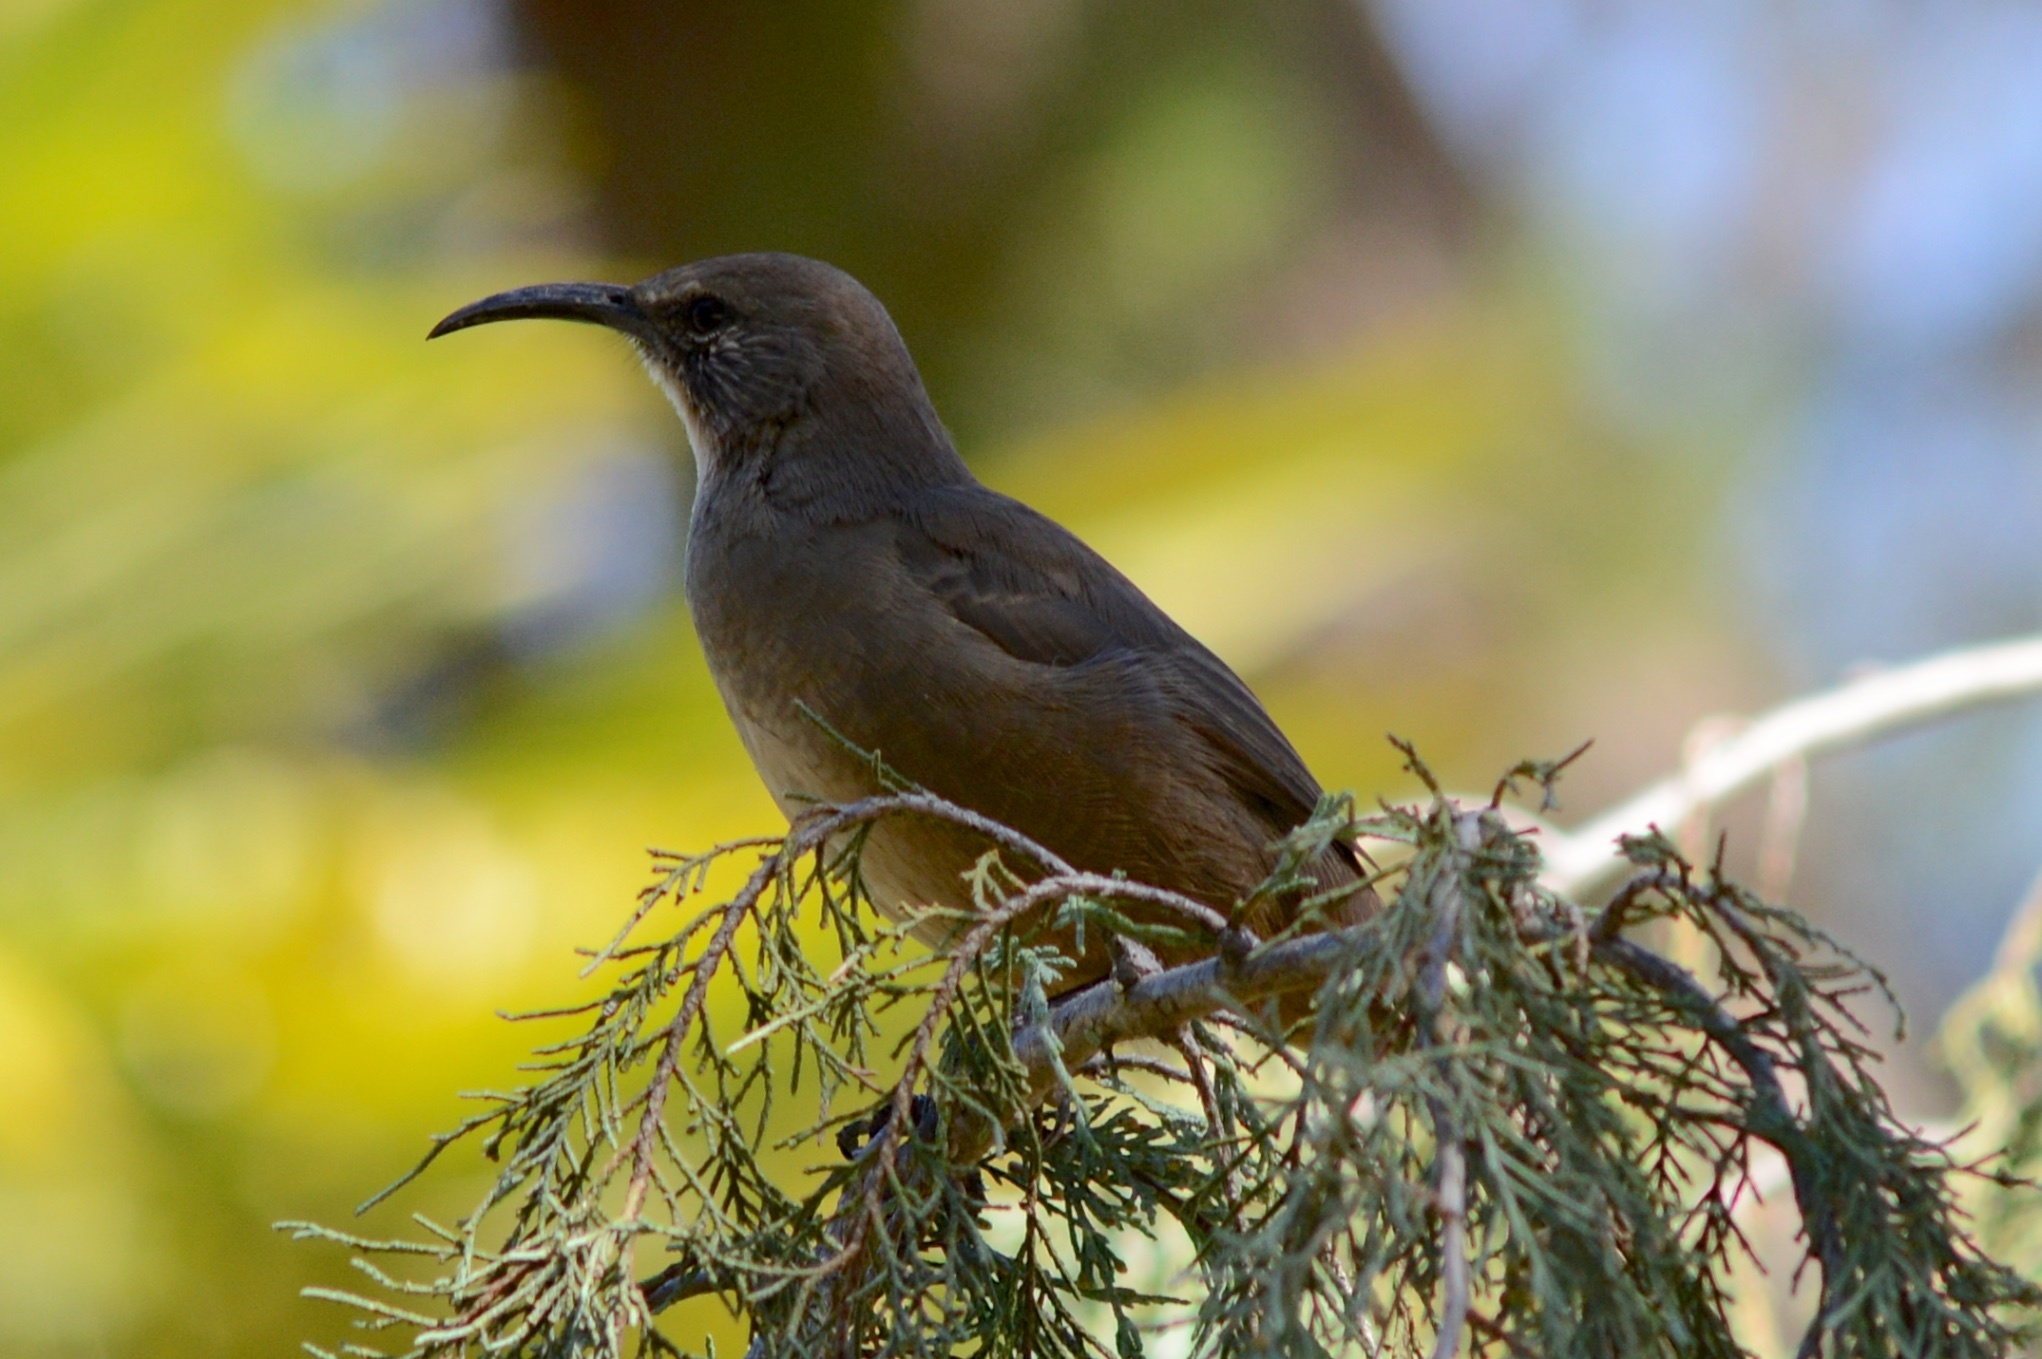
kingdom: Animalia
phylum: Chordata
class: Aves
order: Passeriformes
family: Mimidae
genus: Toxostoma
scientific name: Toxostoma redivivum
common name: California thrasher
